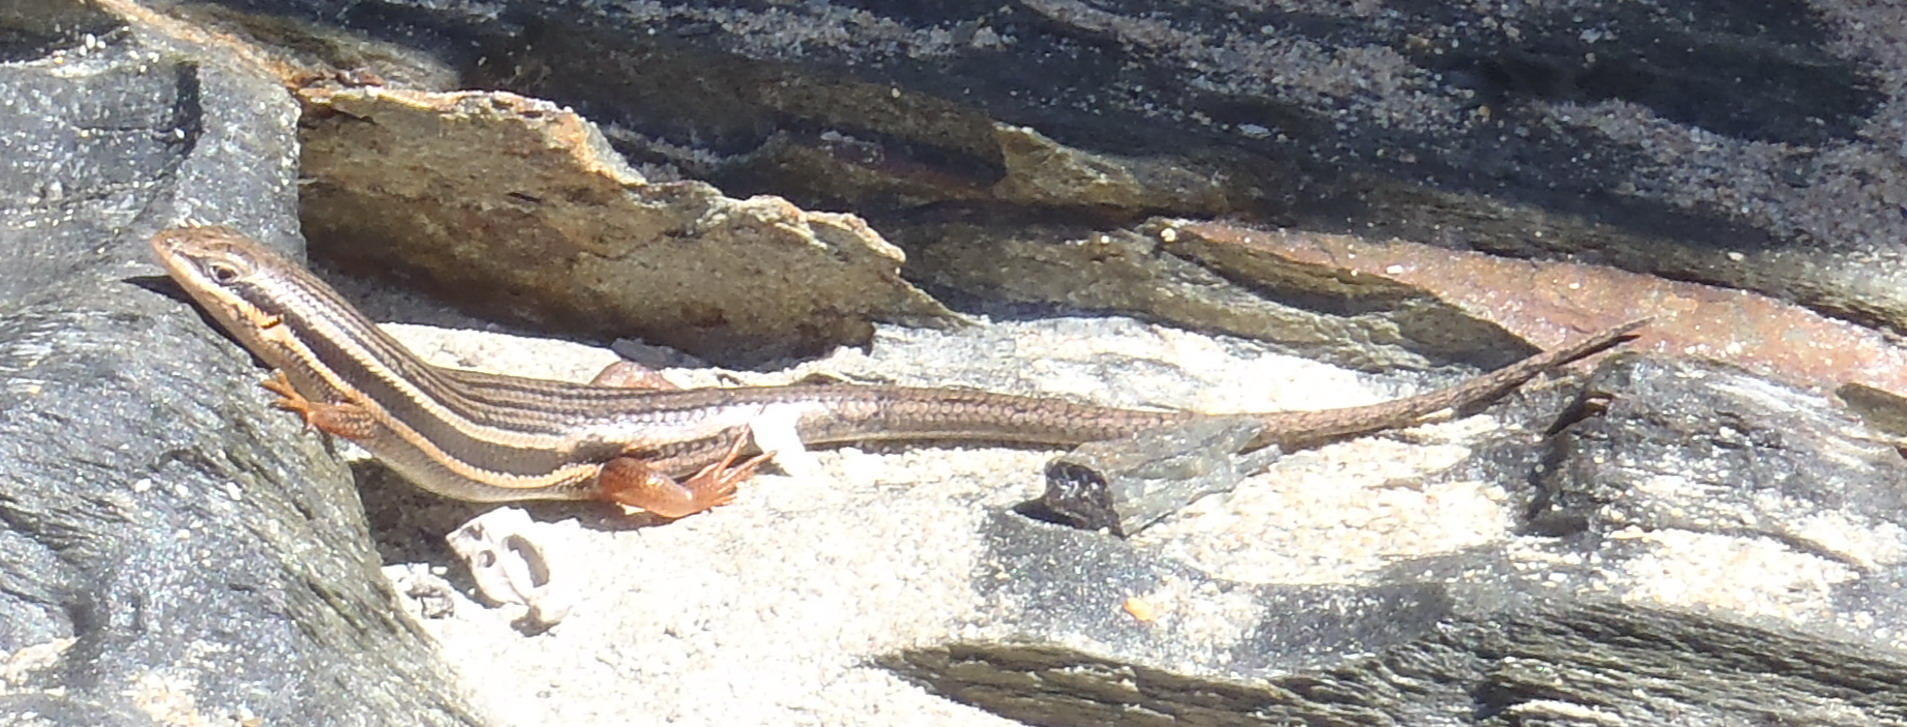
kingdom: Animalia
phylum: Chordata
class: Squamata
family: Scincidae
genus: Trachylepis
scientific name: Trachylepis homalocephala
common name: Red-sided skink
